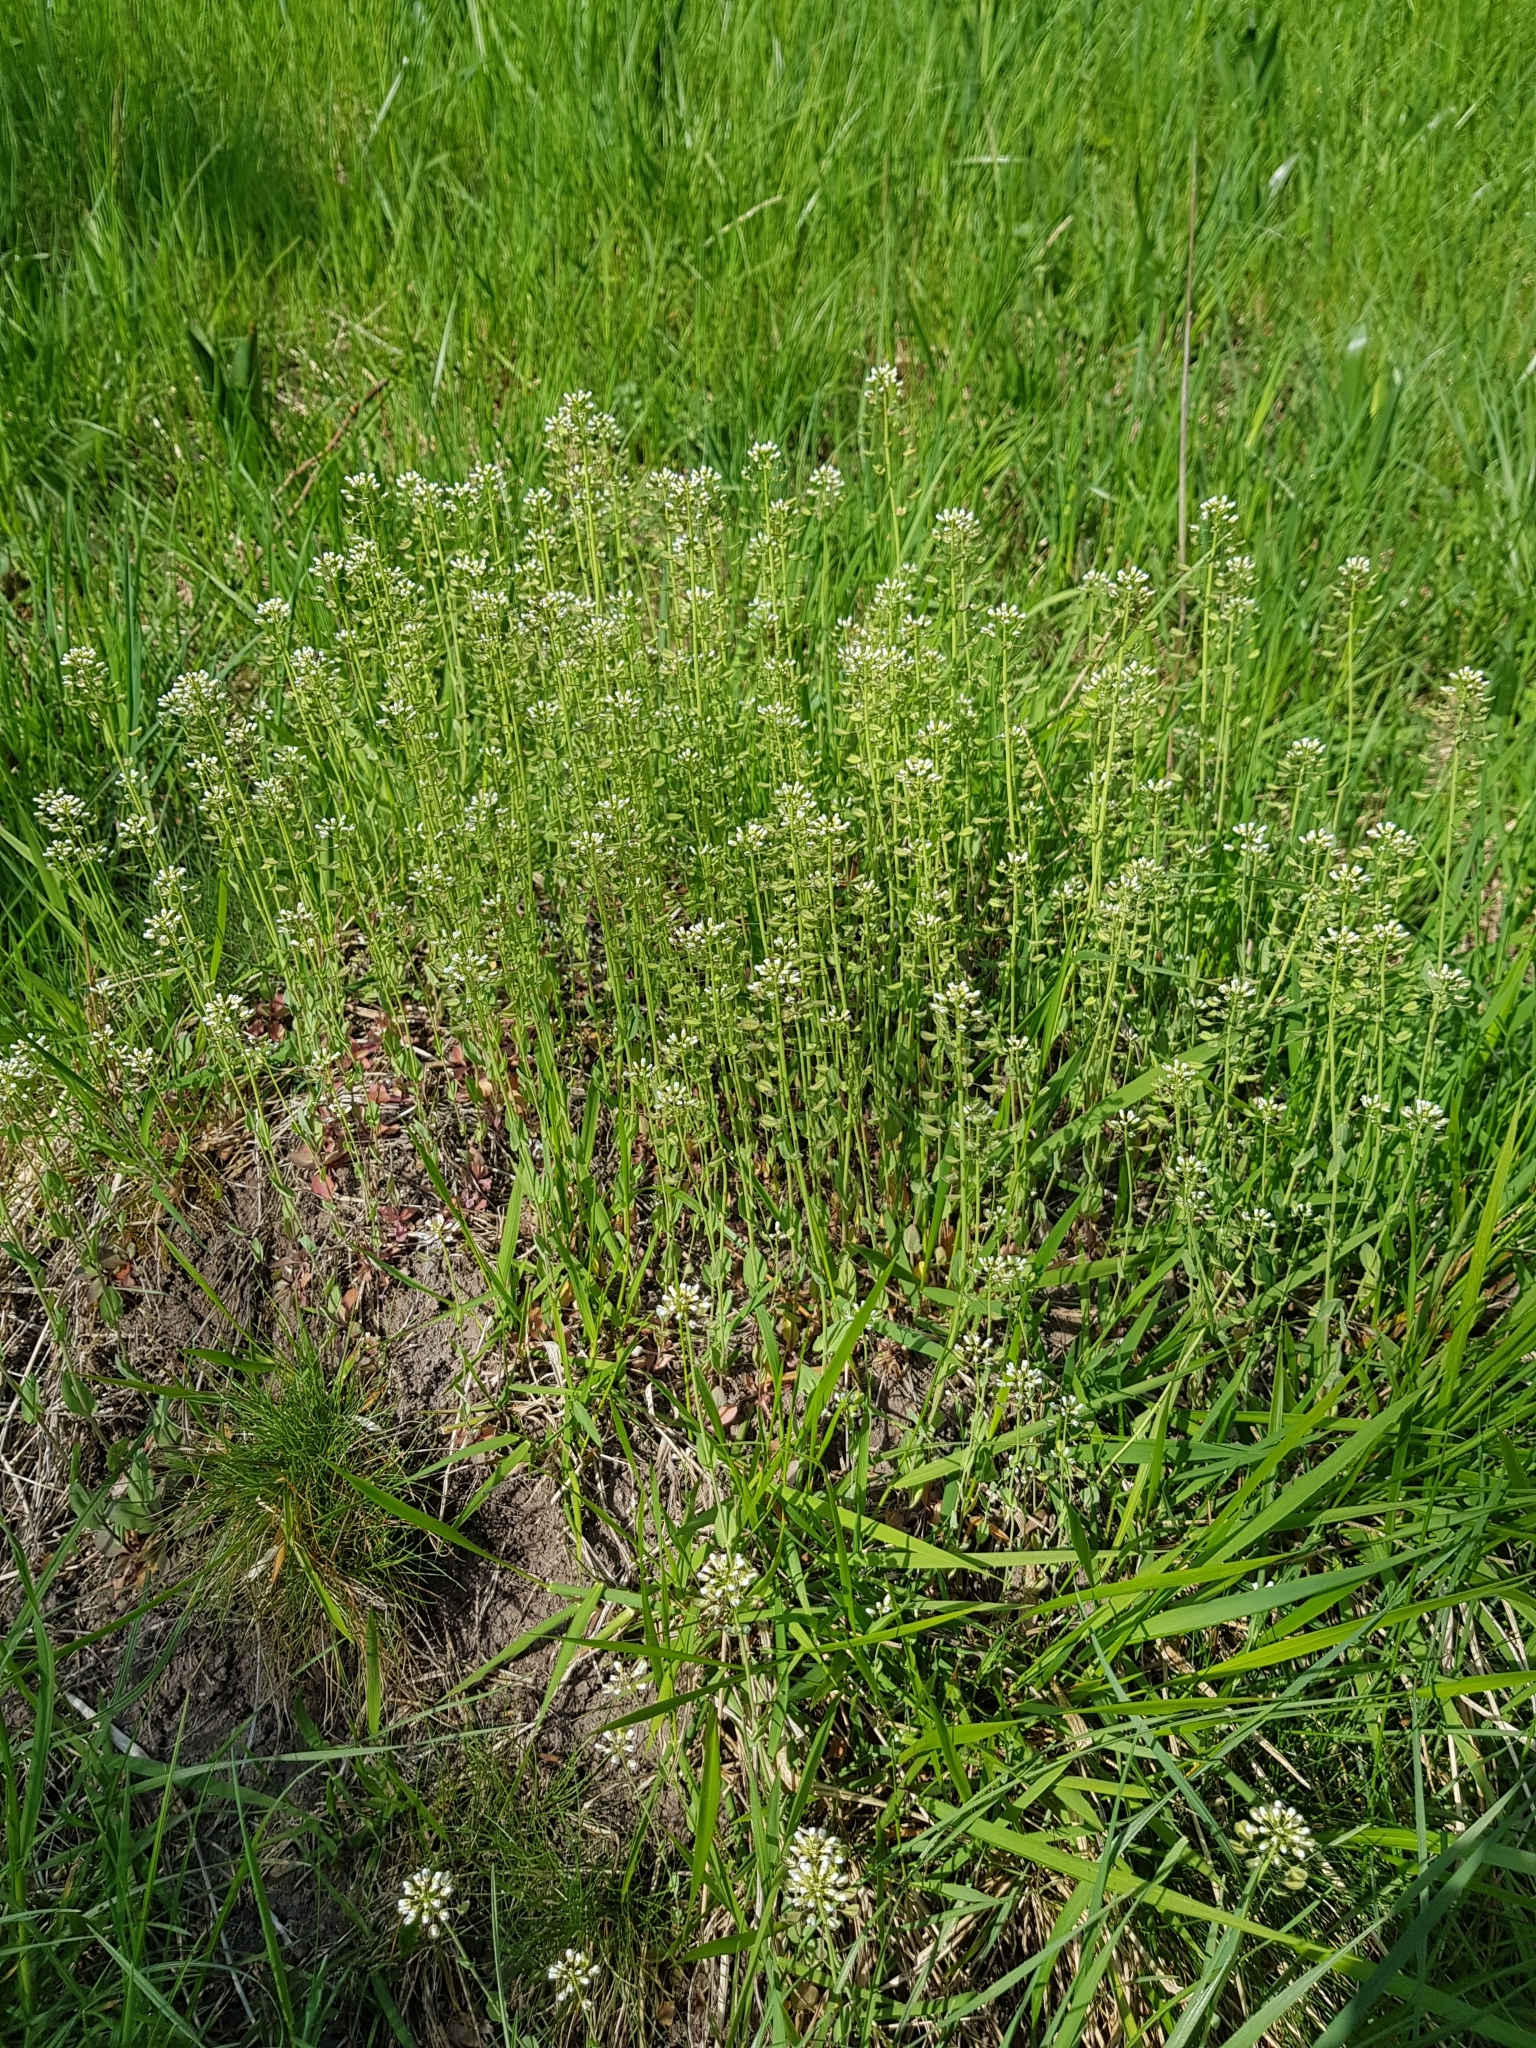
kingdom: Plantae
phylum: Tracheophyta
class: Magnoliopsida
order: Brassicales
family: Brassicaceae
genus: Noccaea
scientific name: Noccaea perfoliata
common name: Perfoliate pennycress
